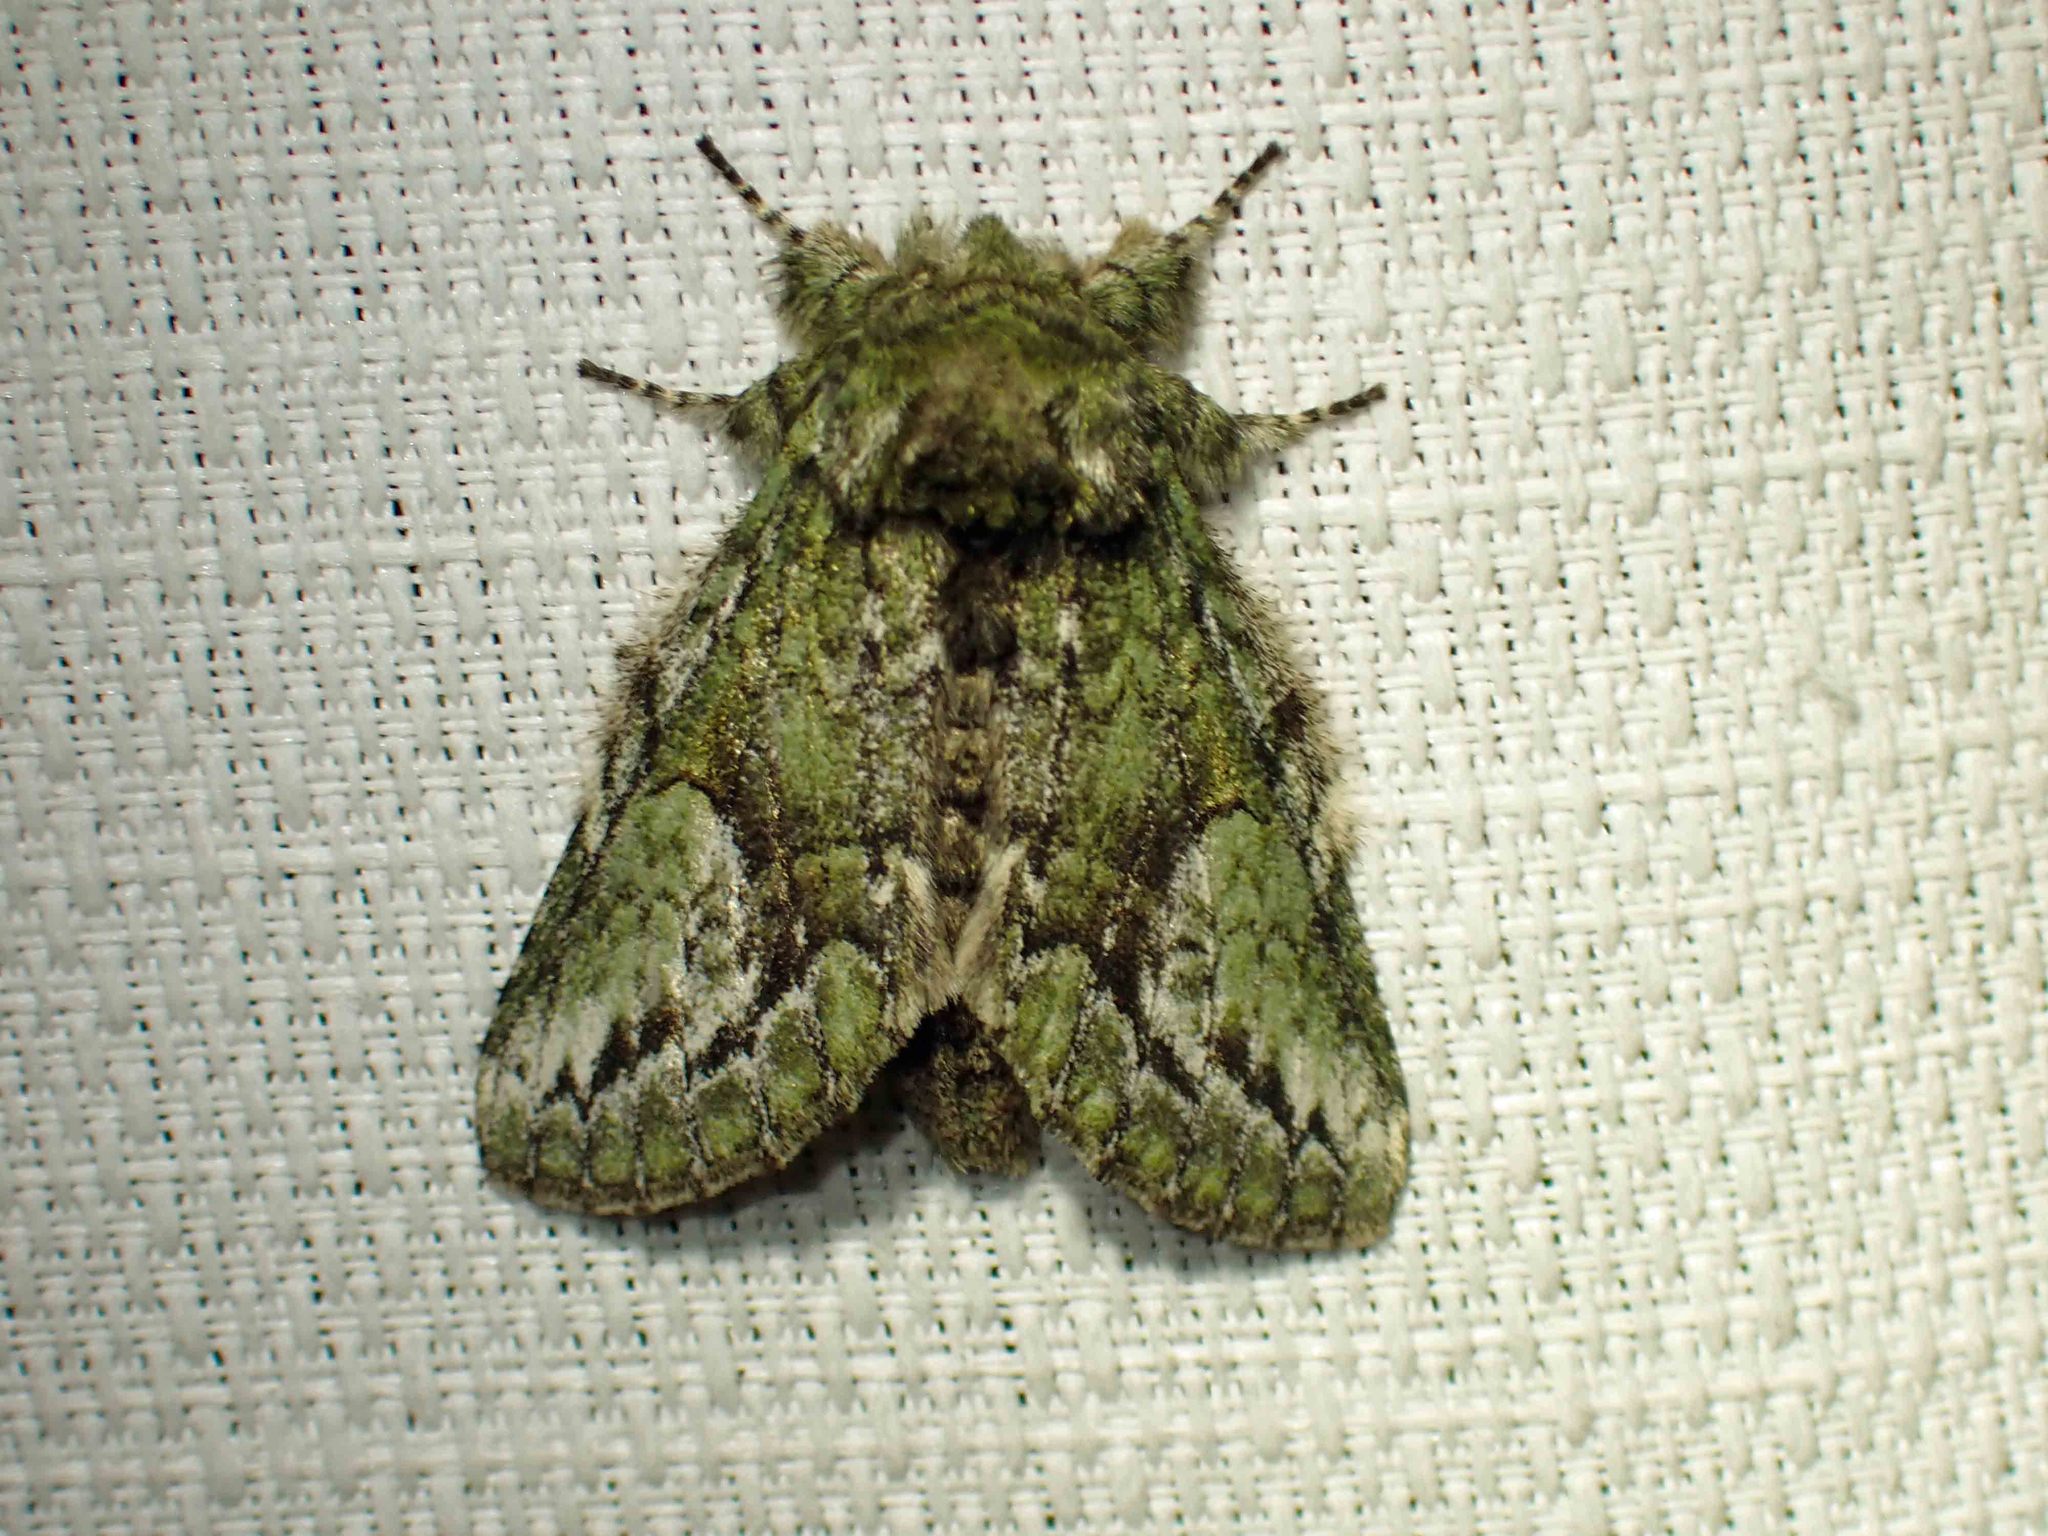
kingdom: Animalia
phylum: Arthropoda
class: Insecta
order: Lepidoptera
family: Notodontidae
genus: Heterocampa
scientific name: Heterocampa
